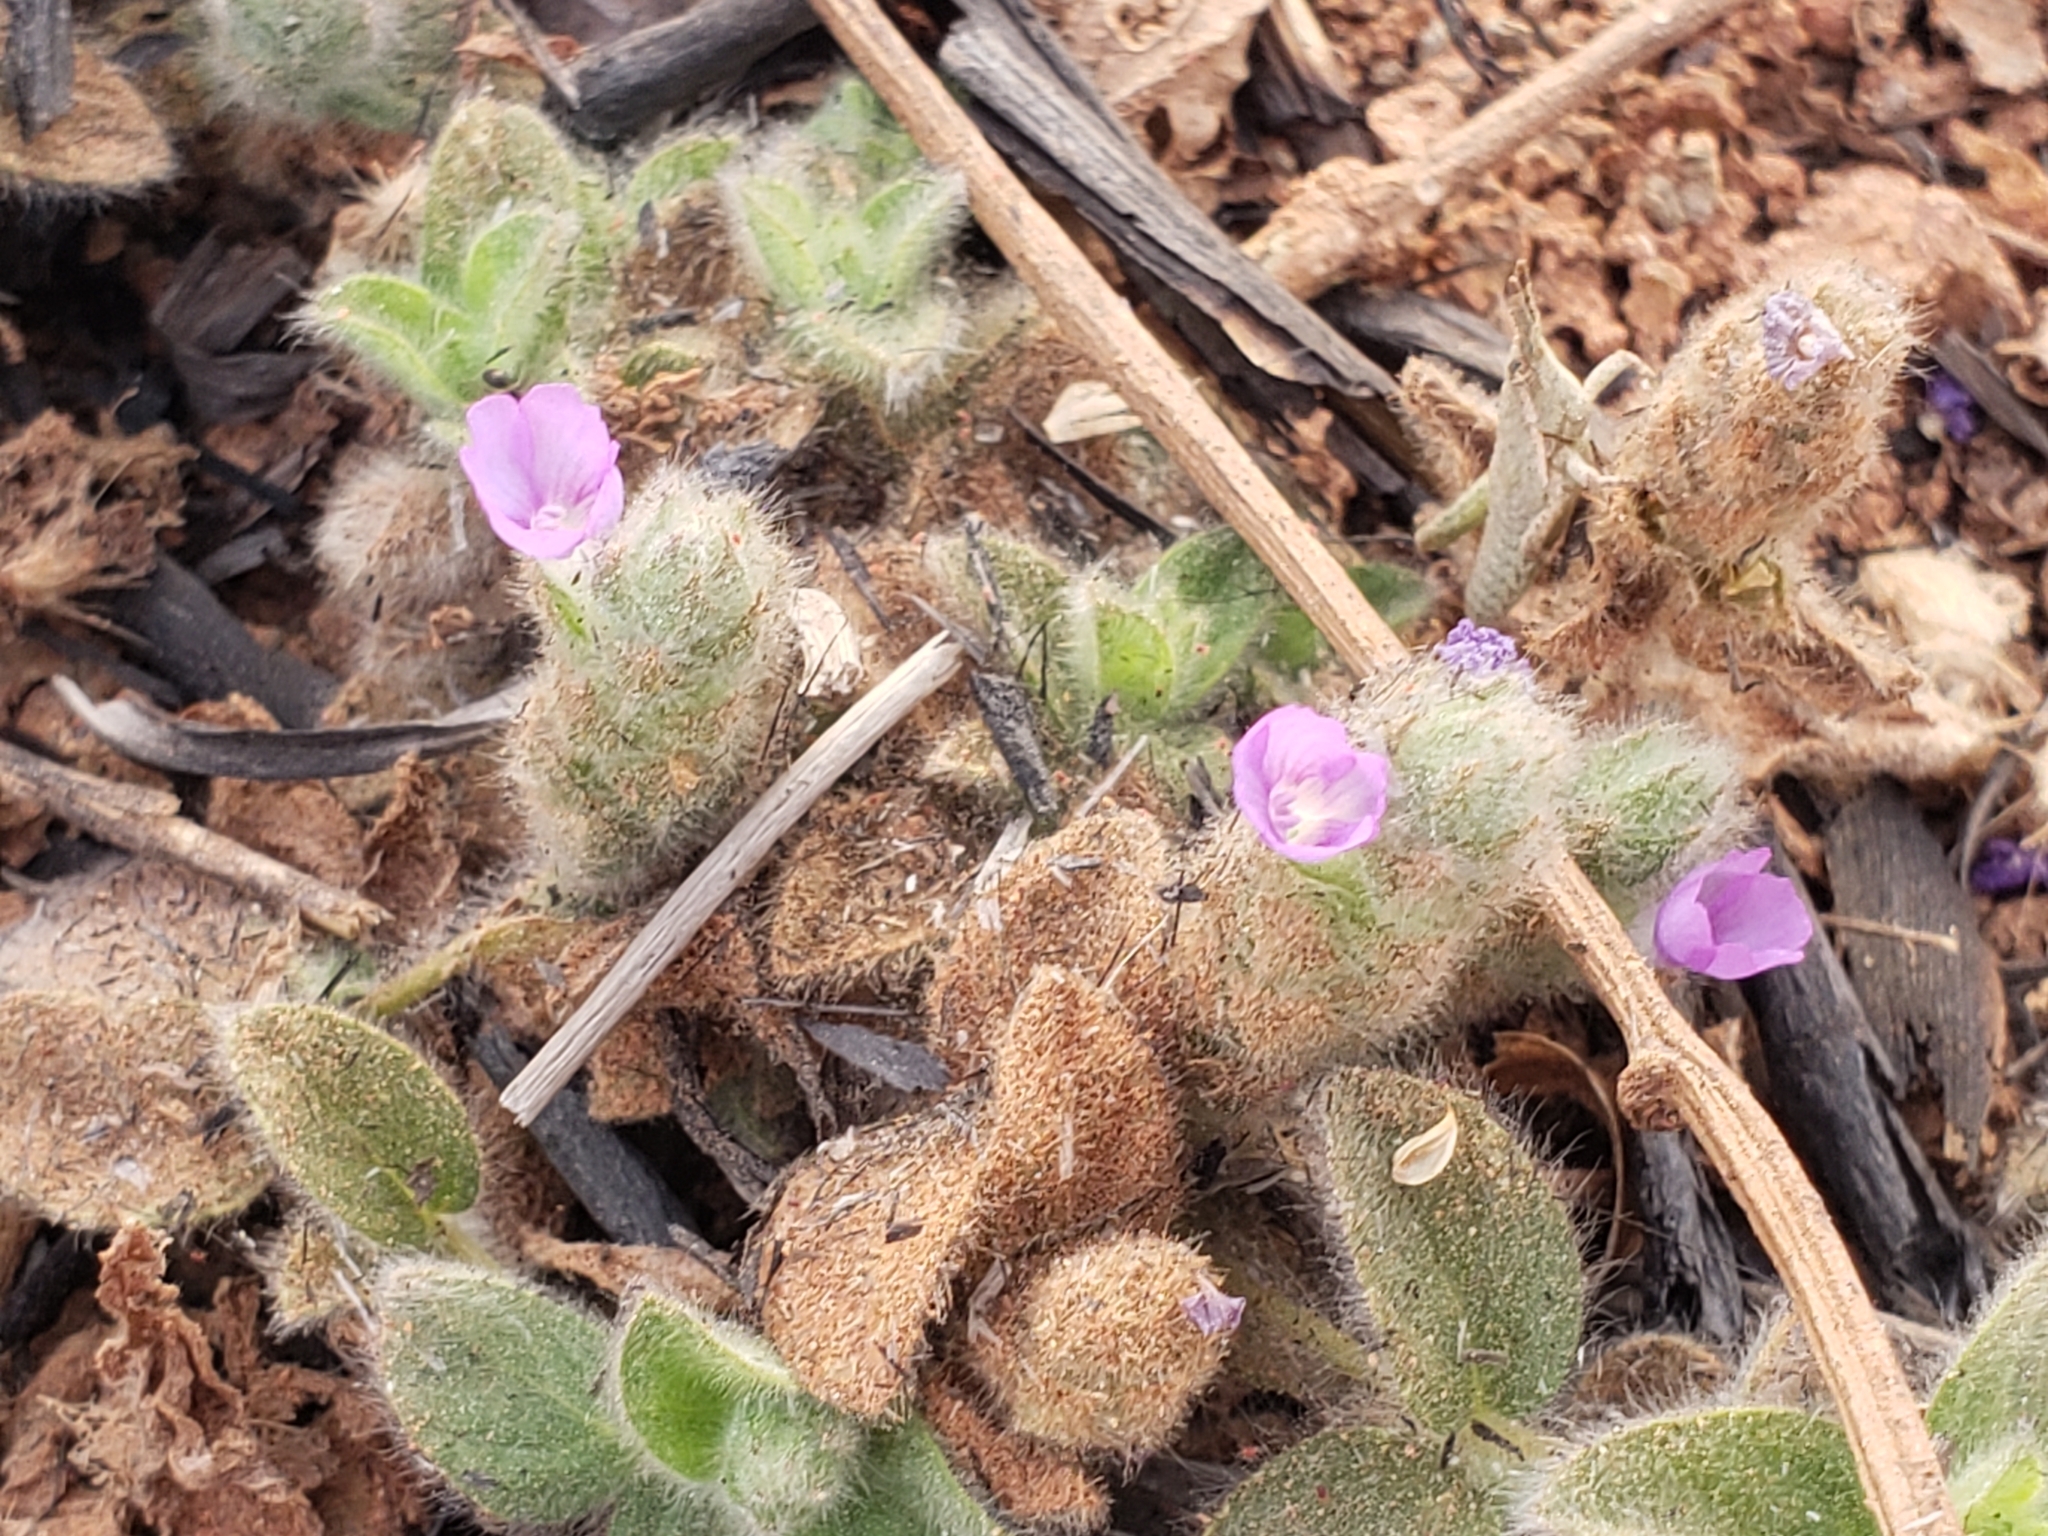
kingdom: Plantae
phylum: Tracheophyta
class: Magnoliopsida
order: Lamiales
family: Acanthaceae
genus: Nelsonia
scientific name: Nelsonia canescens
